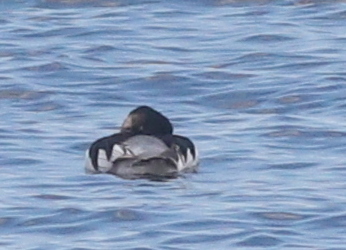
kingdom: Animalia
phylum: Chordata
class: Aves
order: Anseriformes
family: Anatidae
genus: Bucephala
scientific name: Bucephala clangula
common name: Common goldeneye
